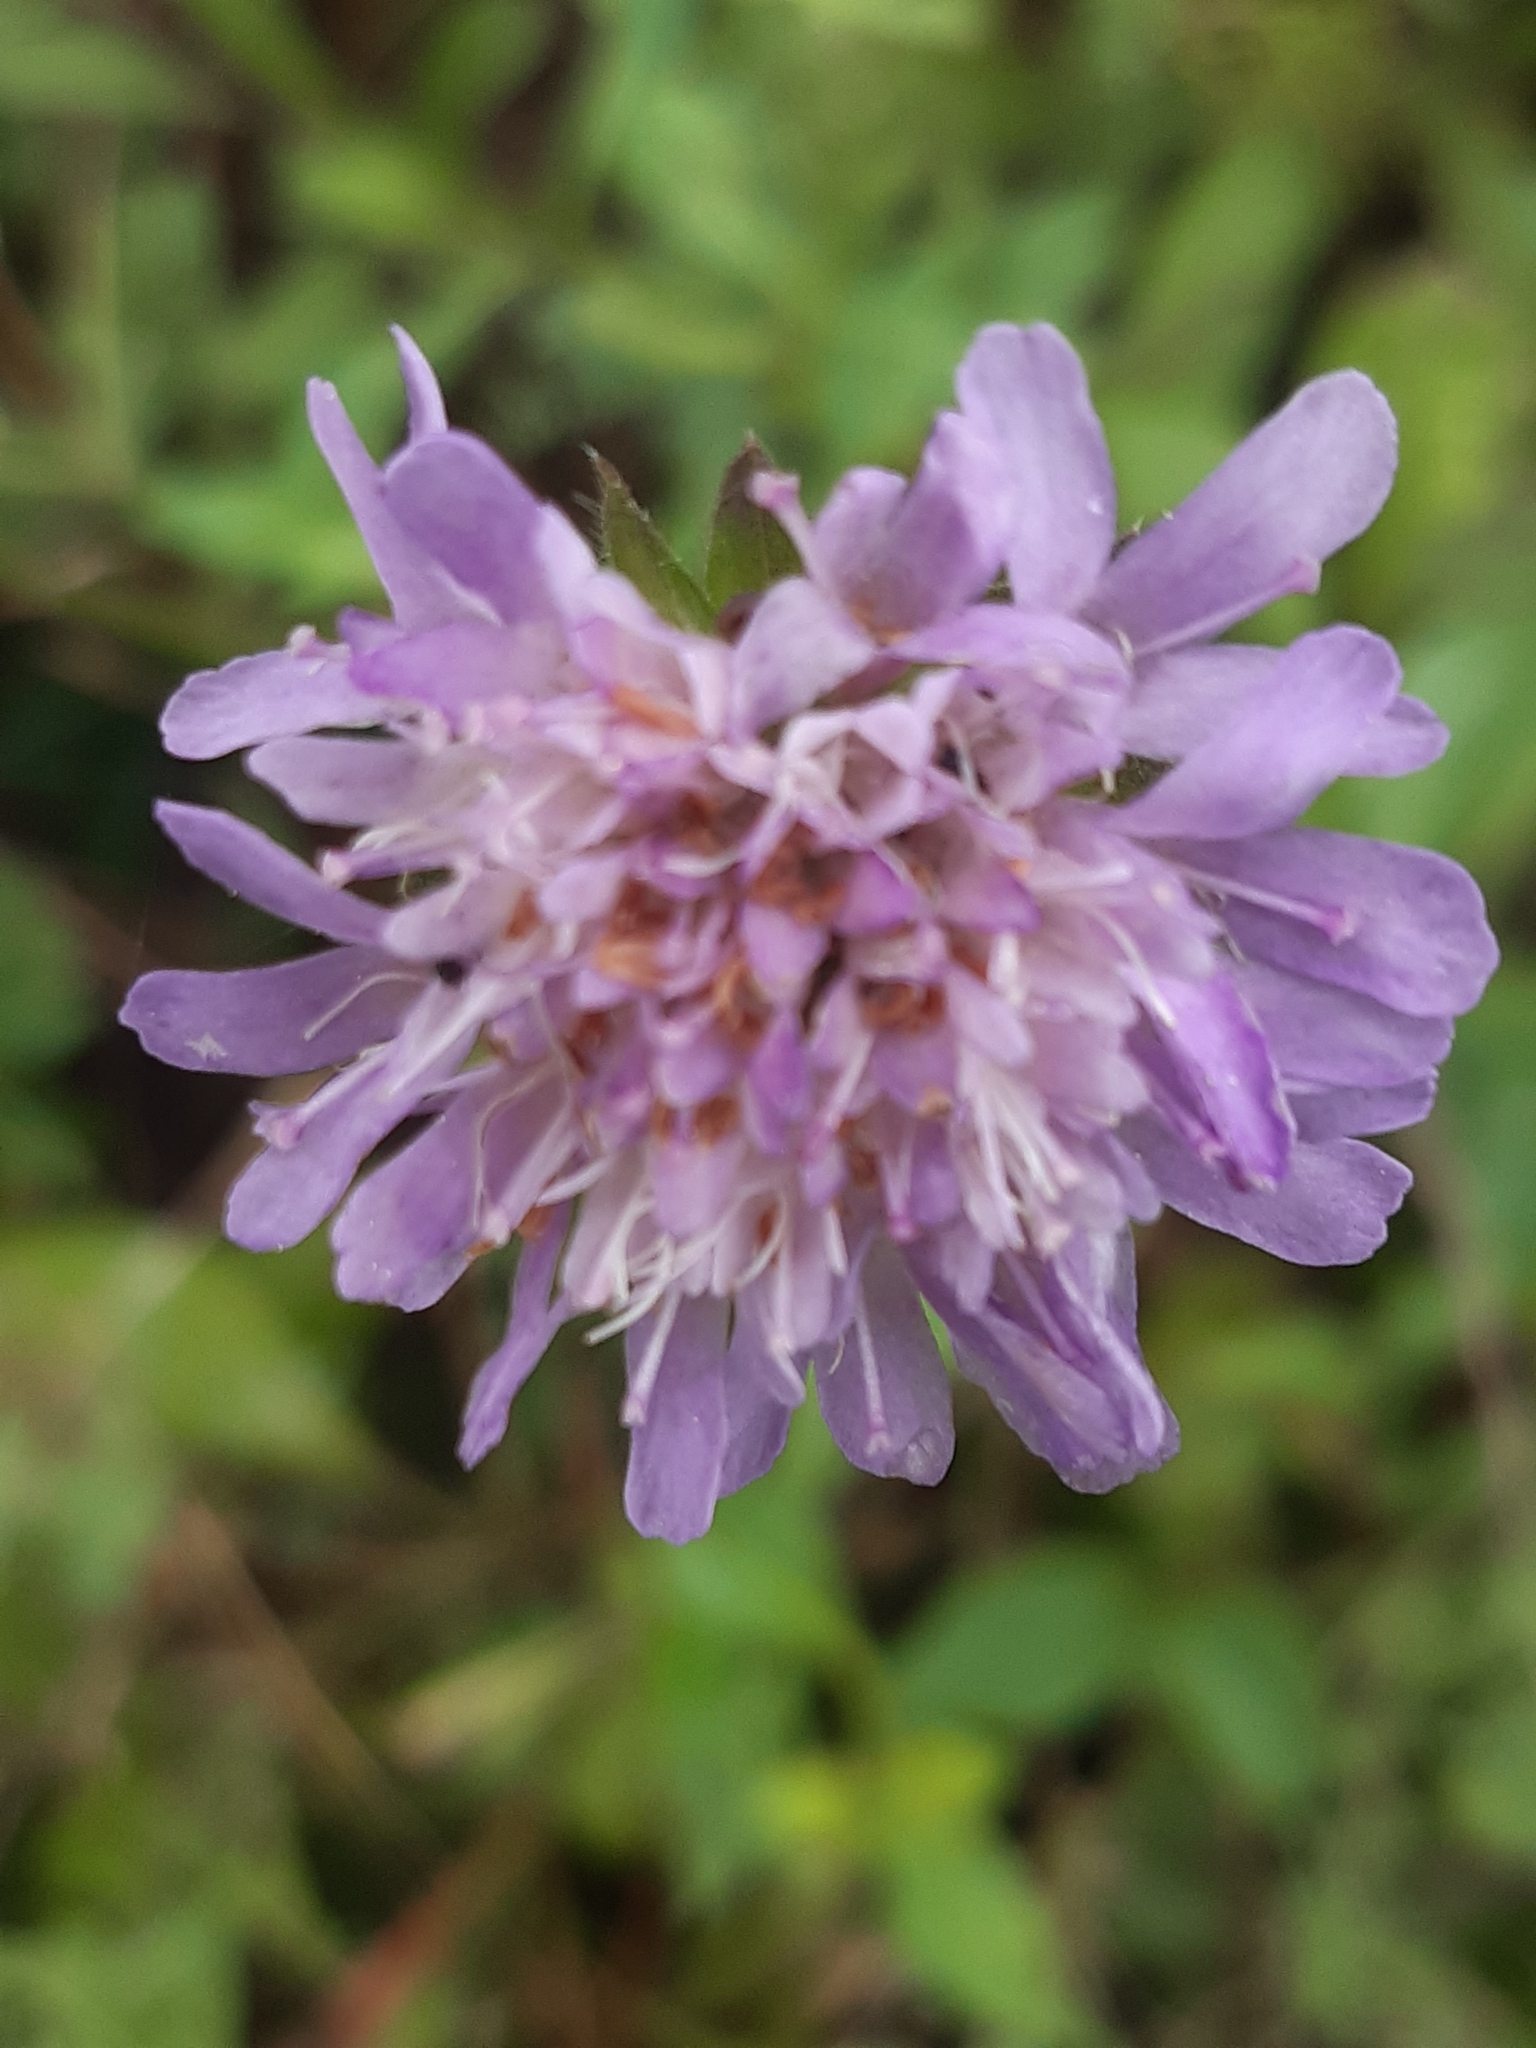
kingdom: Plantae
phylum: Tracheophyta
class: Magnoliopsida
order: Dipsacales
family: Caprifoliaceae
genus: Knautia
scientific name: Knautia drymeia
